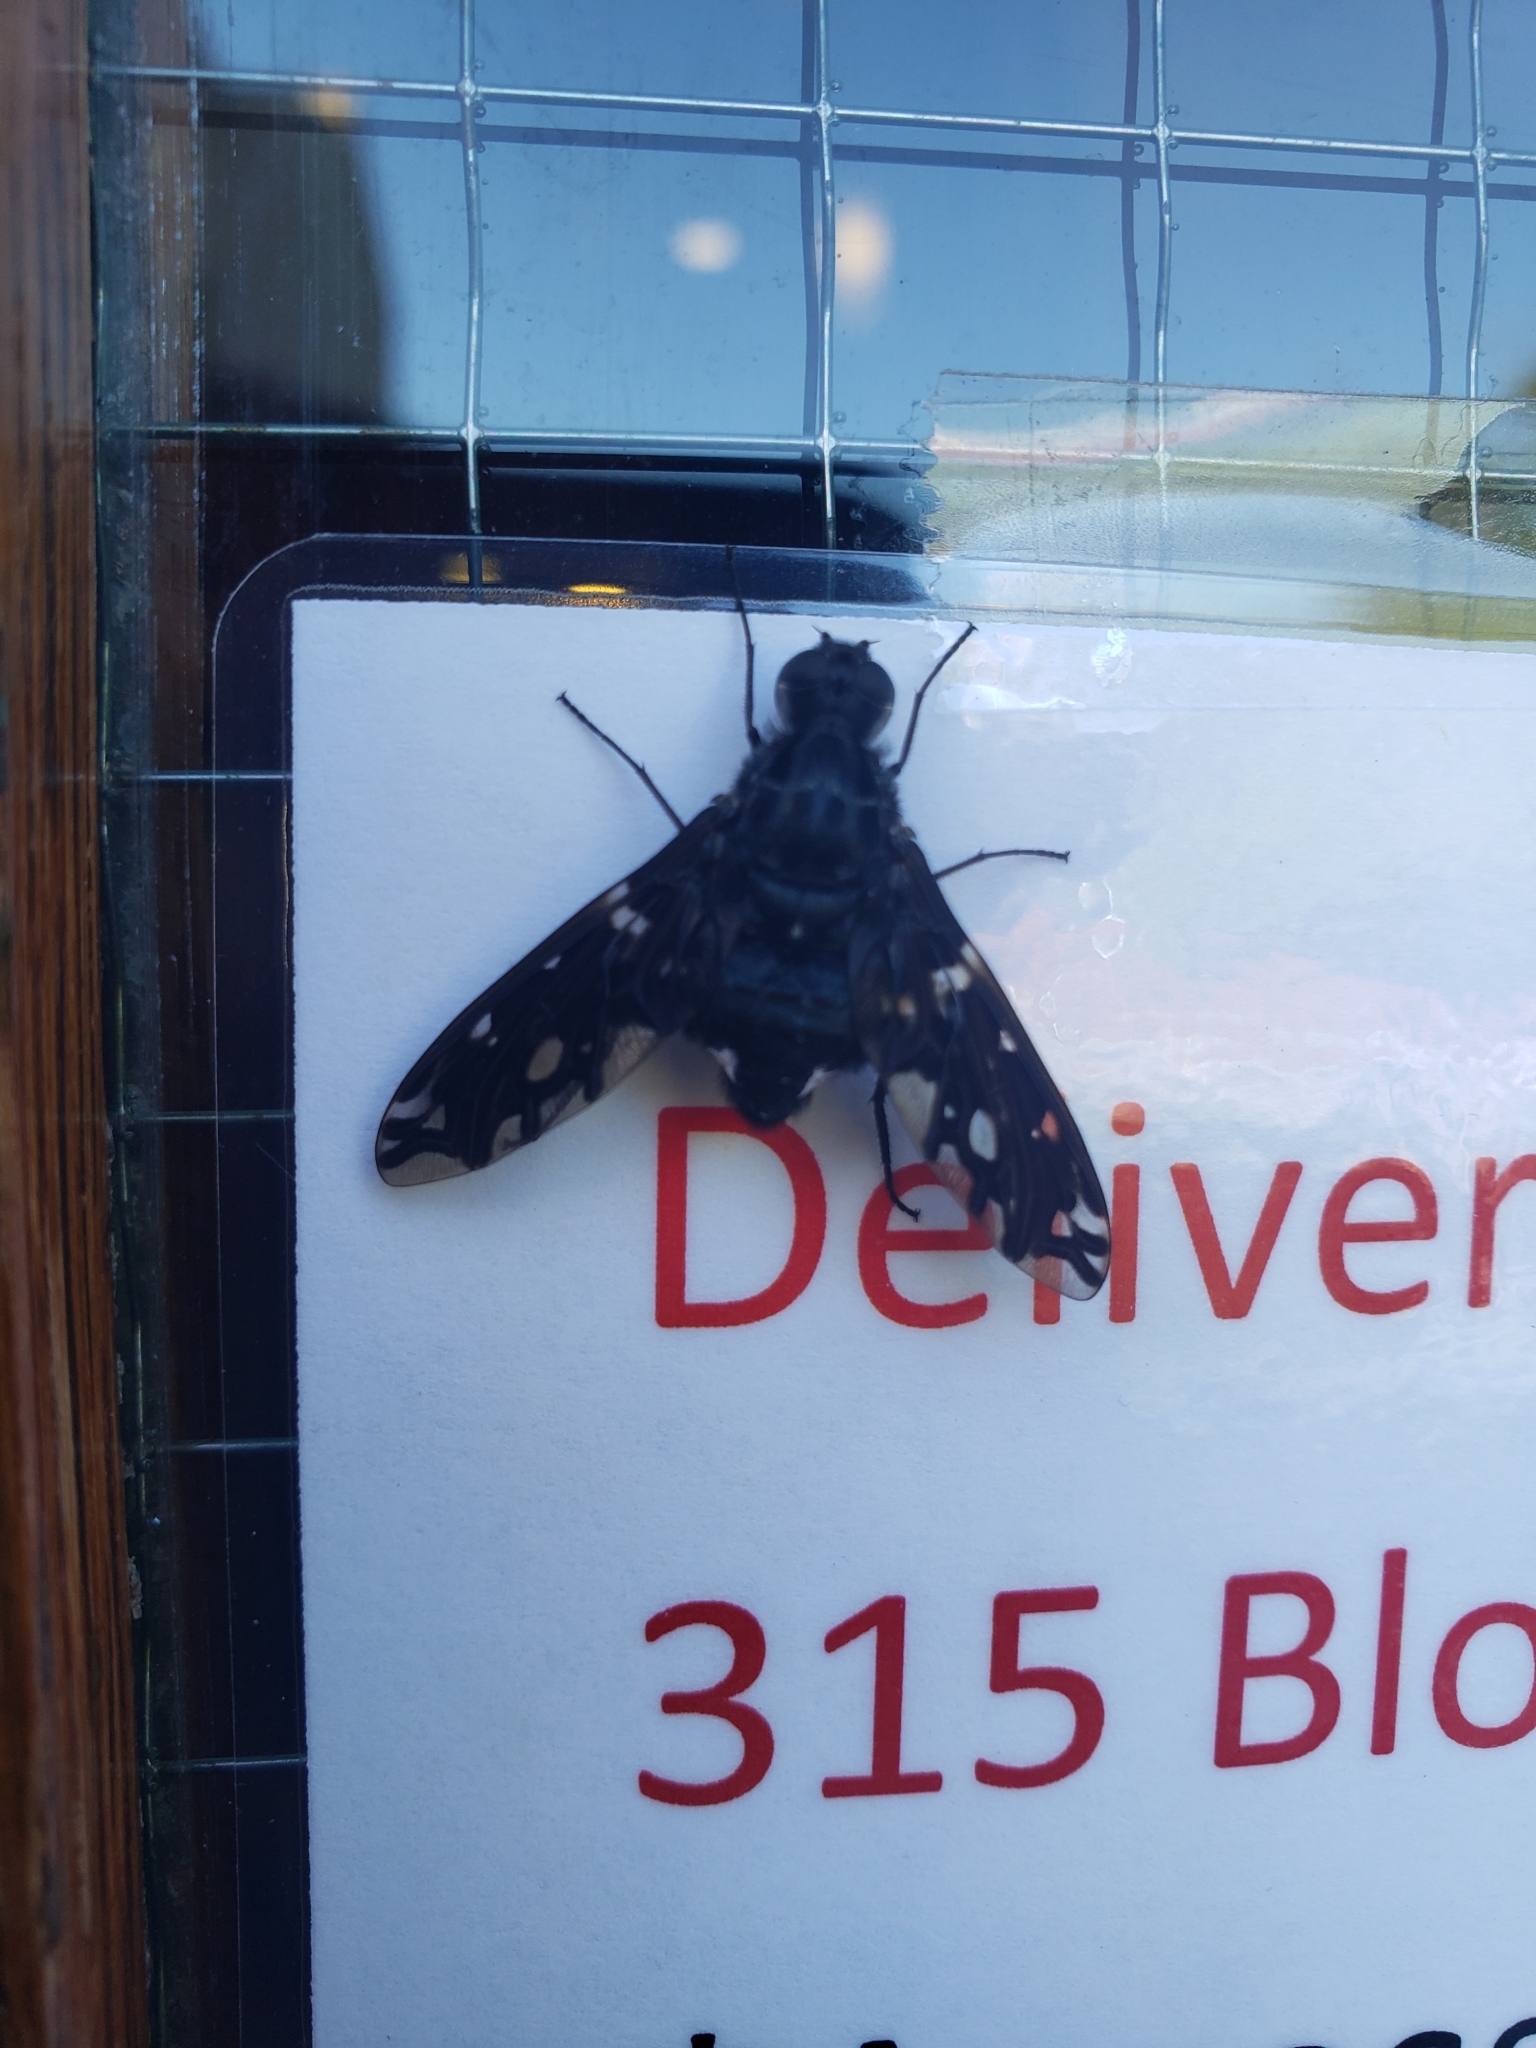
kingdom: Animalia
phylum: Arthropoda
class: Insecta
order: Diptera
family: Bombyliidae
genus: Xenox
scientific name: Xenox tigrinus
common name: Tiger bee fly
